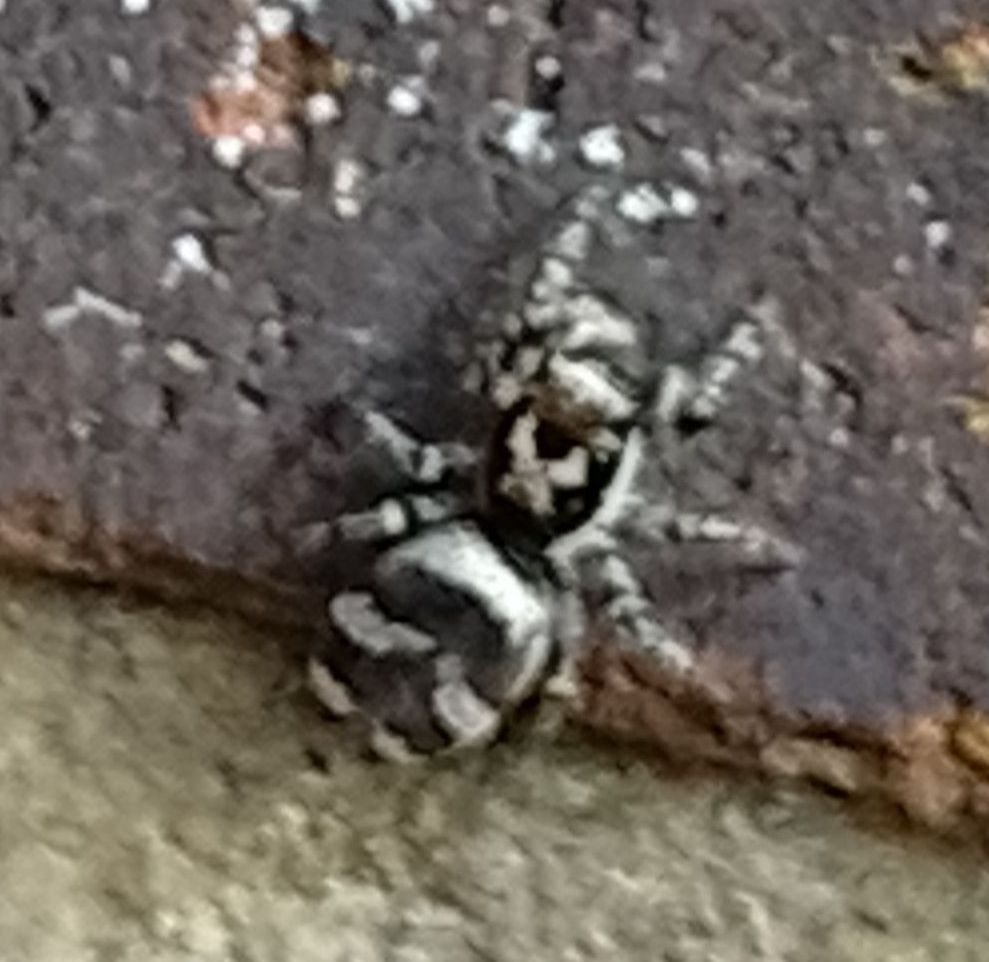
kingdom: Animalia
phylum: Arthropoda
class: Arachnida
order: Araneae
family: Salticidae
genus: Salticus
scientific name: Salticus scenicus
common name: Zebra jumper
